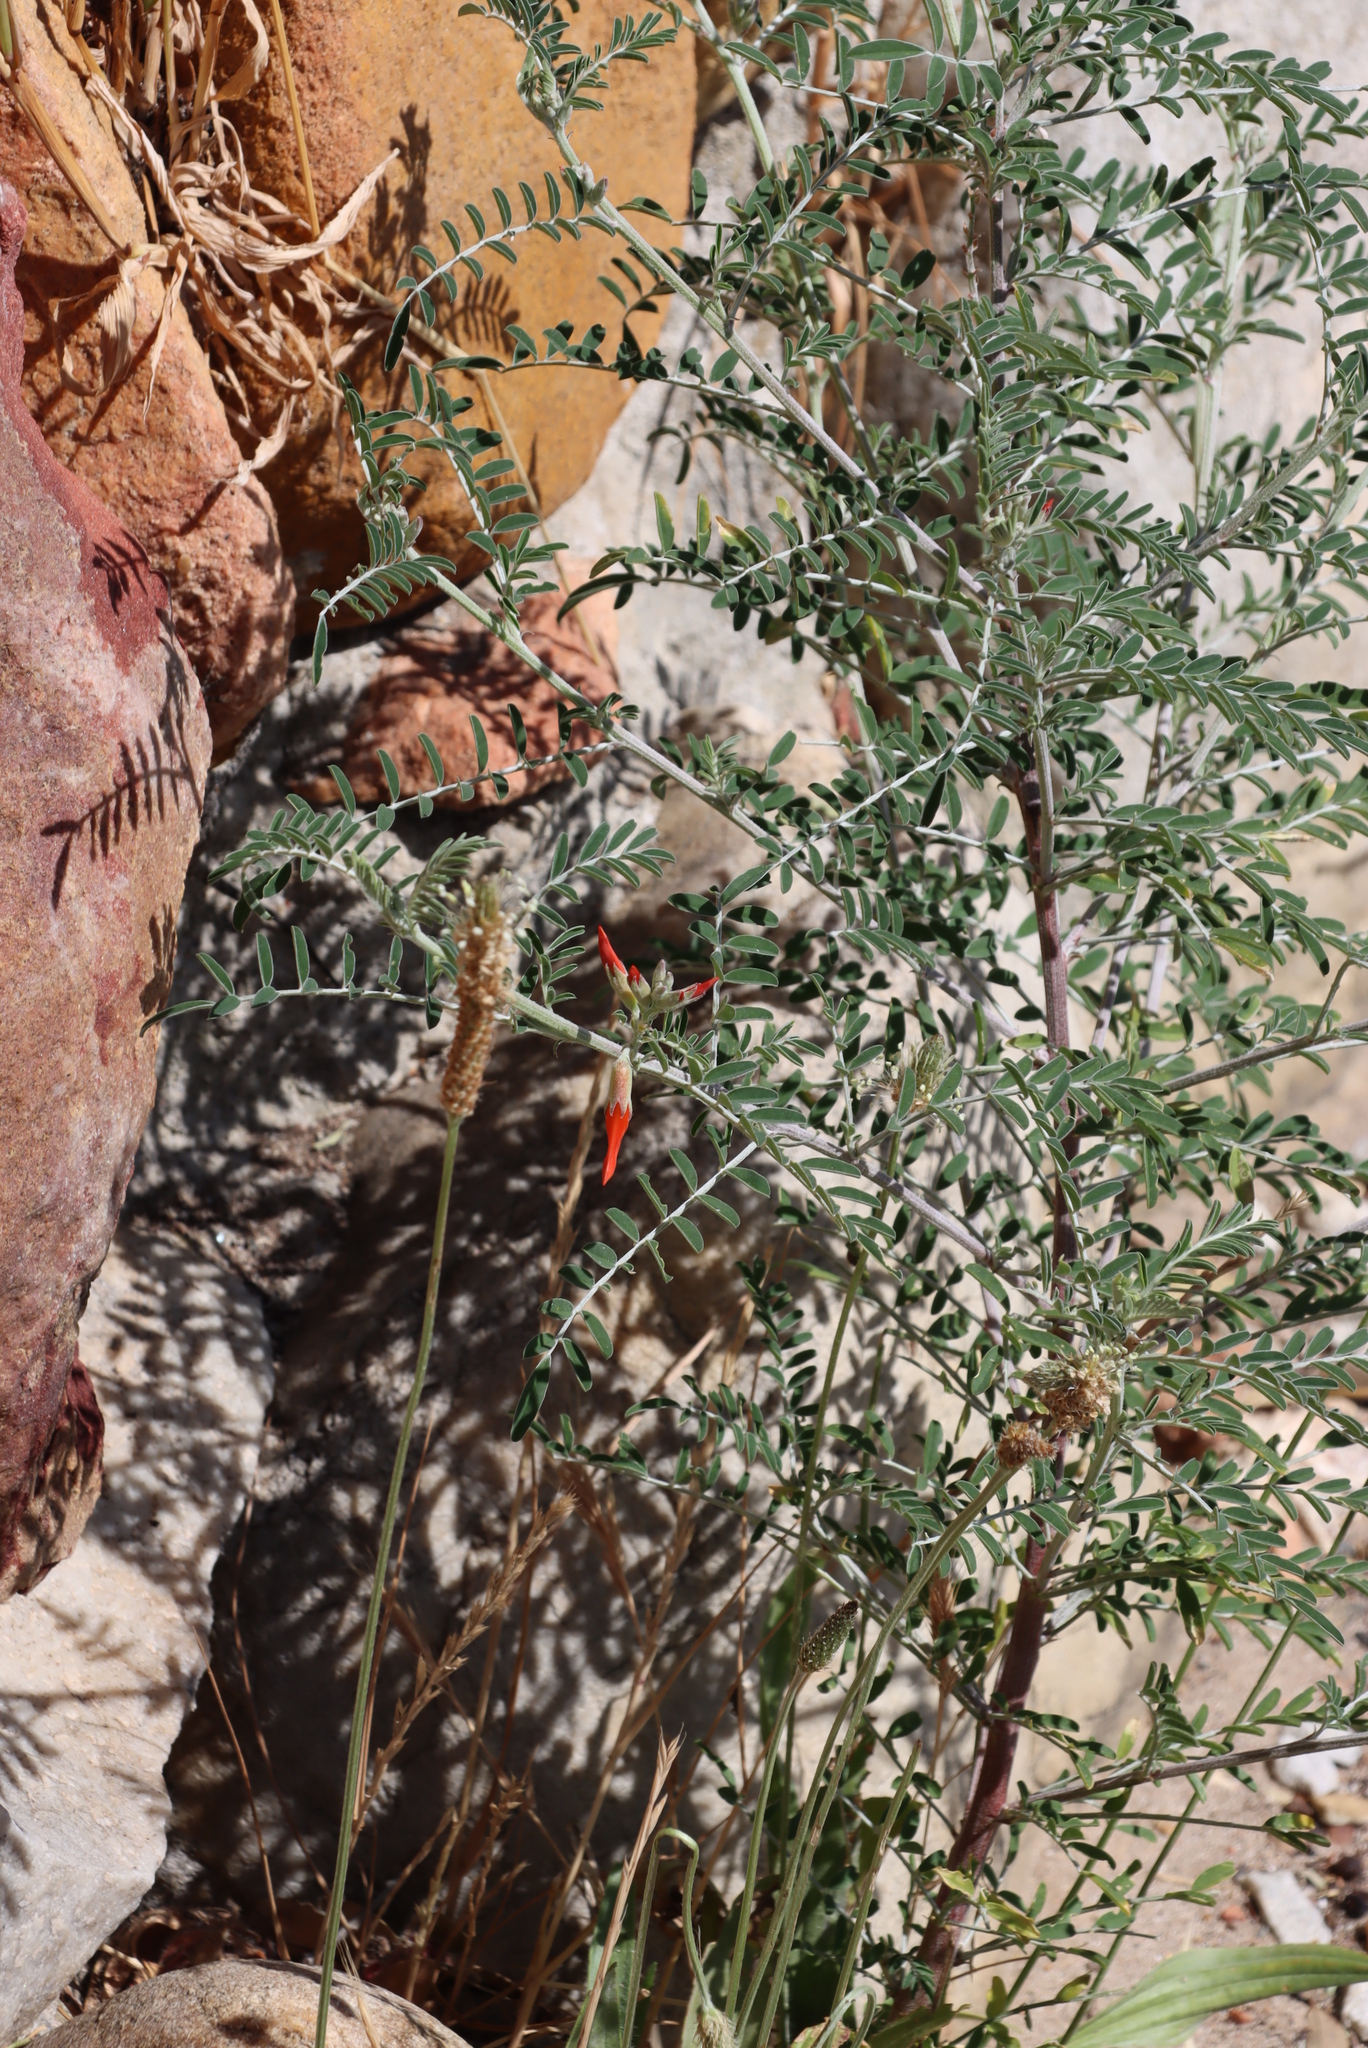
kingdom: Plantae
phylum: Tracheophyta
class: Magnoliopsida
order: Fabales
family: Fabaceae
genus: Lessertia
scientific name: Lessertia frutescens
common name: Balloon-pea
